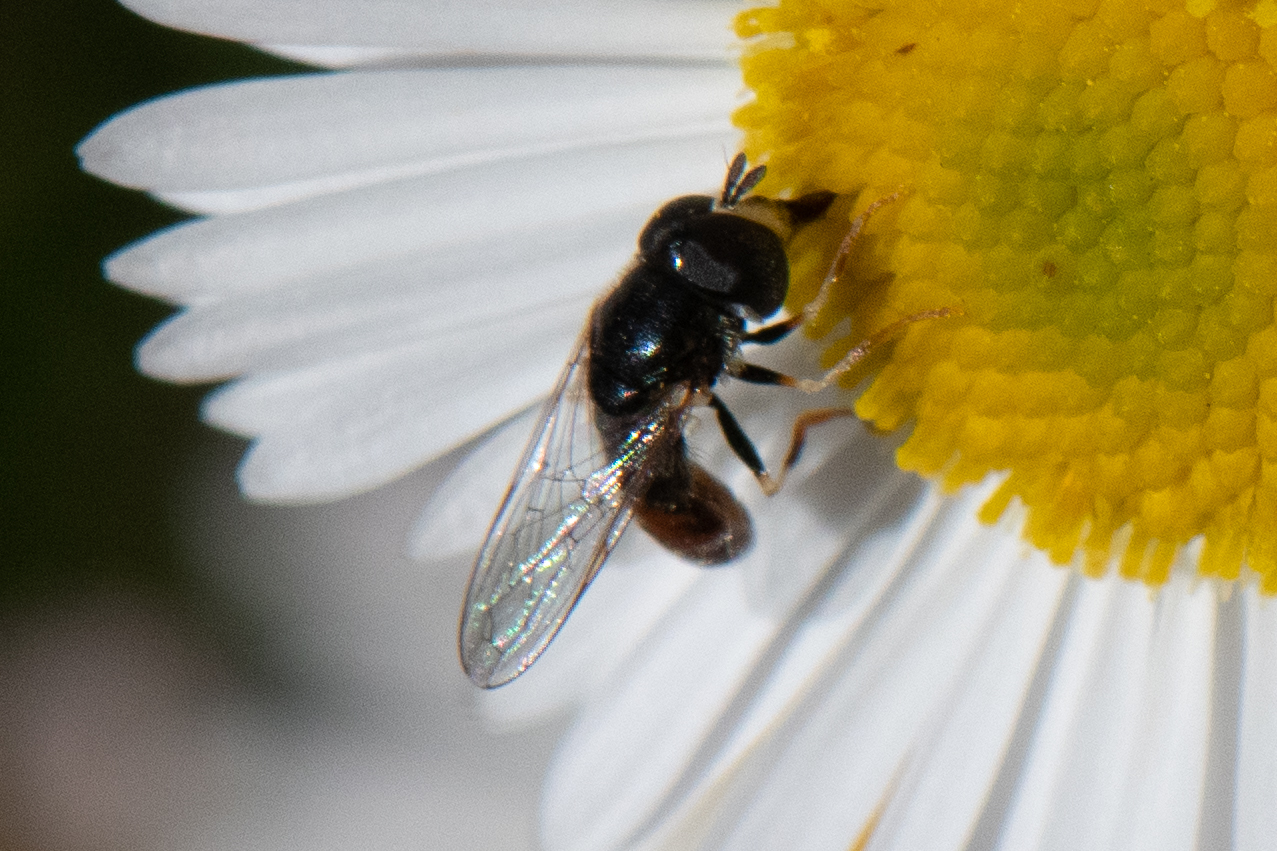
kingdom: Animalia
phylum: Arthropoda
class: Insecta
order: Diptera
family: Syrphidae
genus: Paragus
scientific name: Paragus haemorrhous
